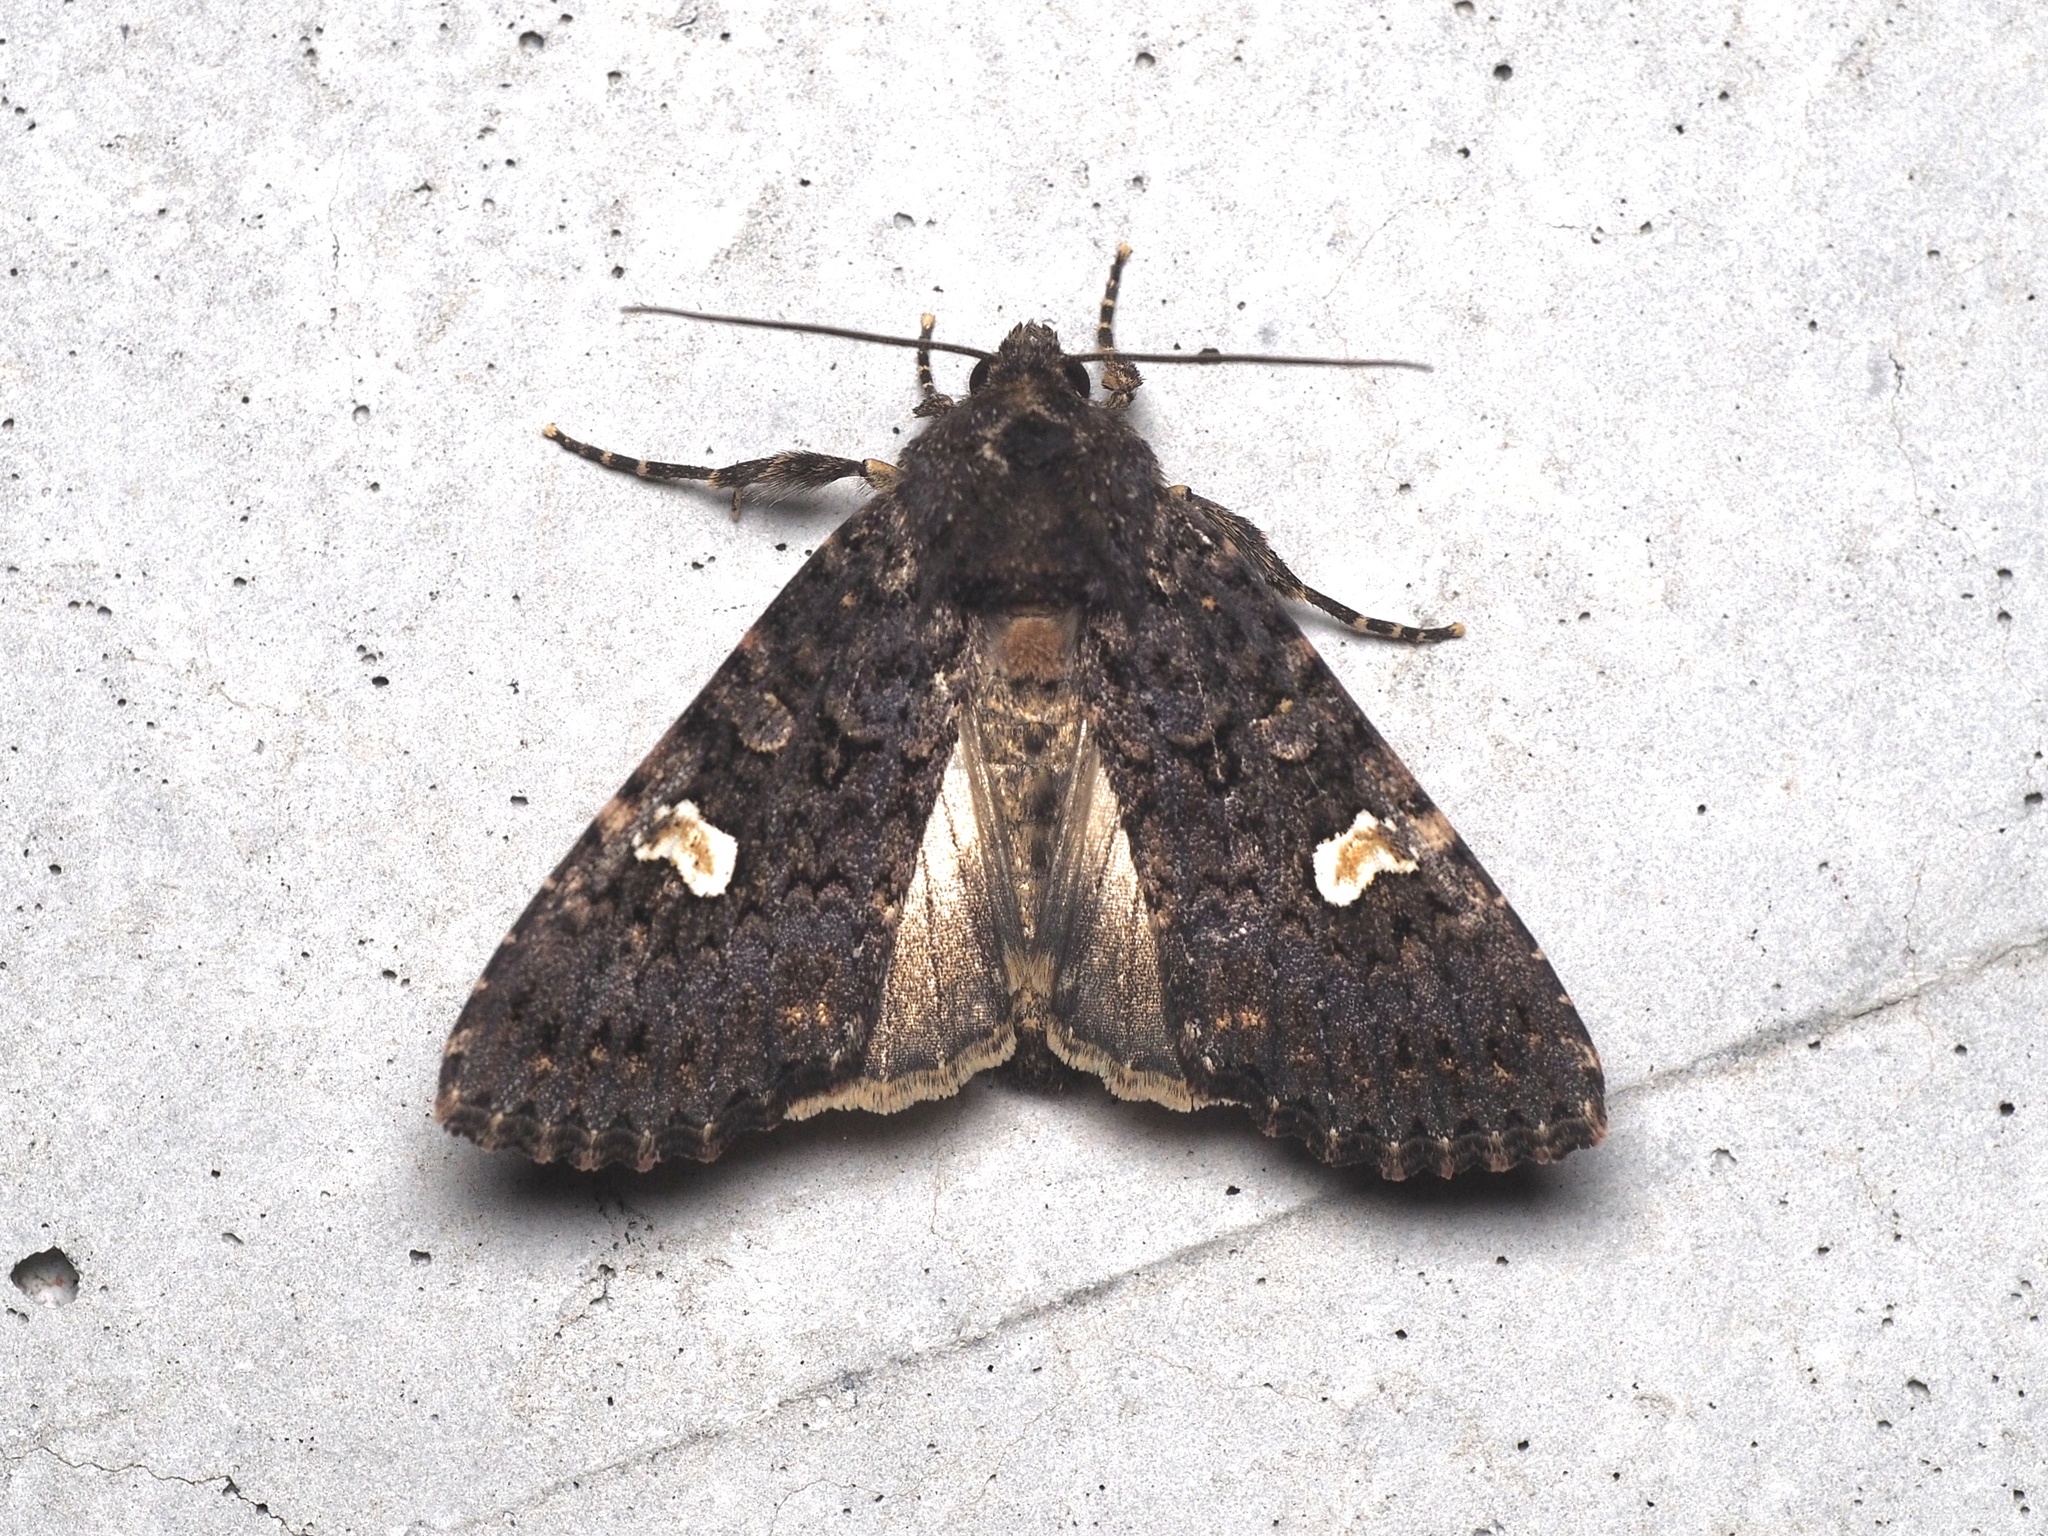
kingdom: Animalia
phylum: Arthropoda
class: Insecta
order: Lepidoptera
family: Noctuidae
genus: Melanchra
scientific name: Melanchra persicariae
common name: Dot moth
